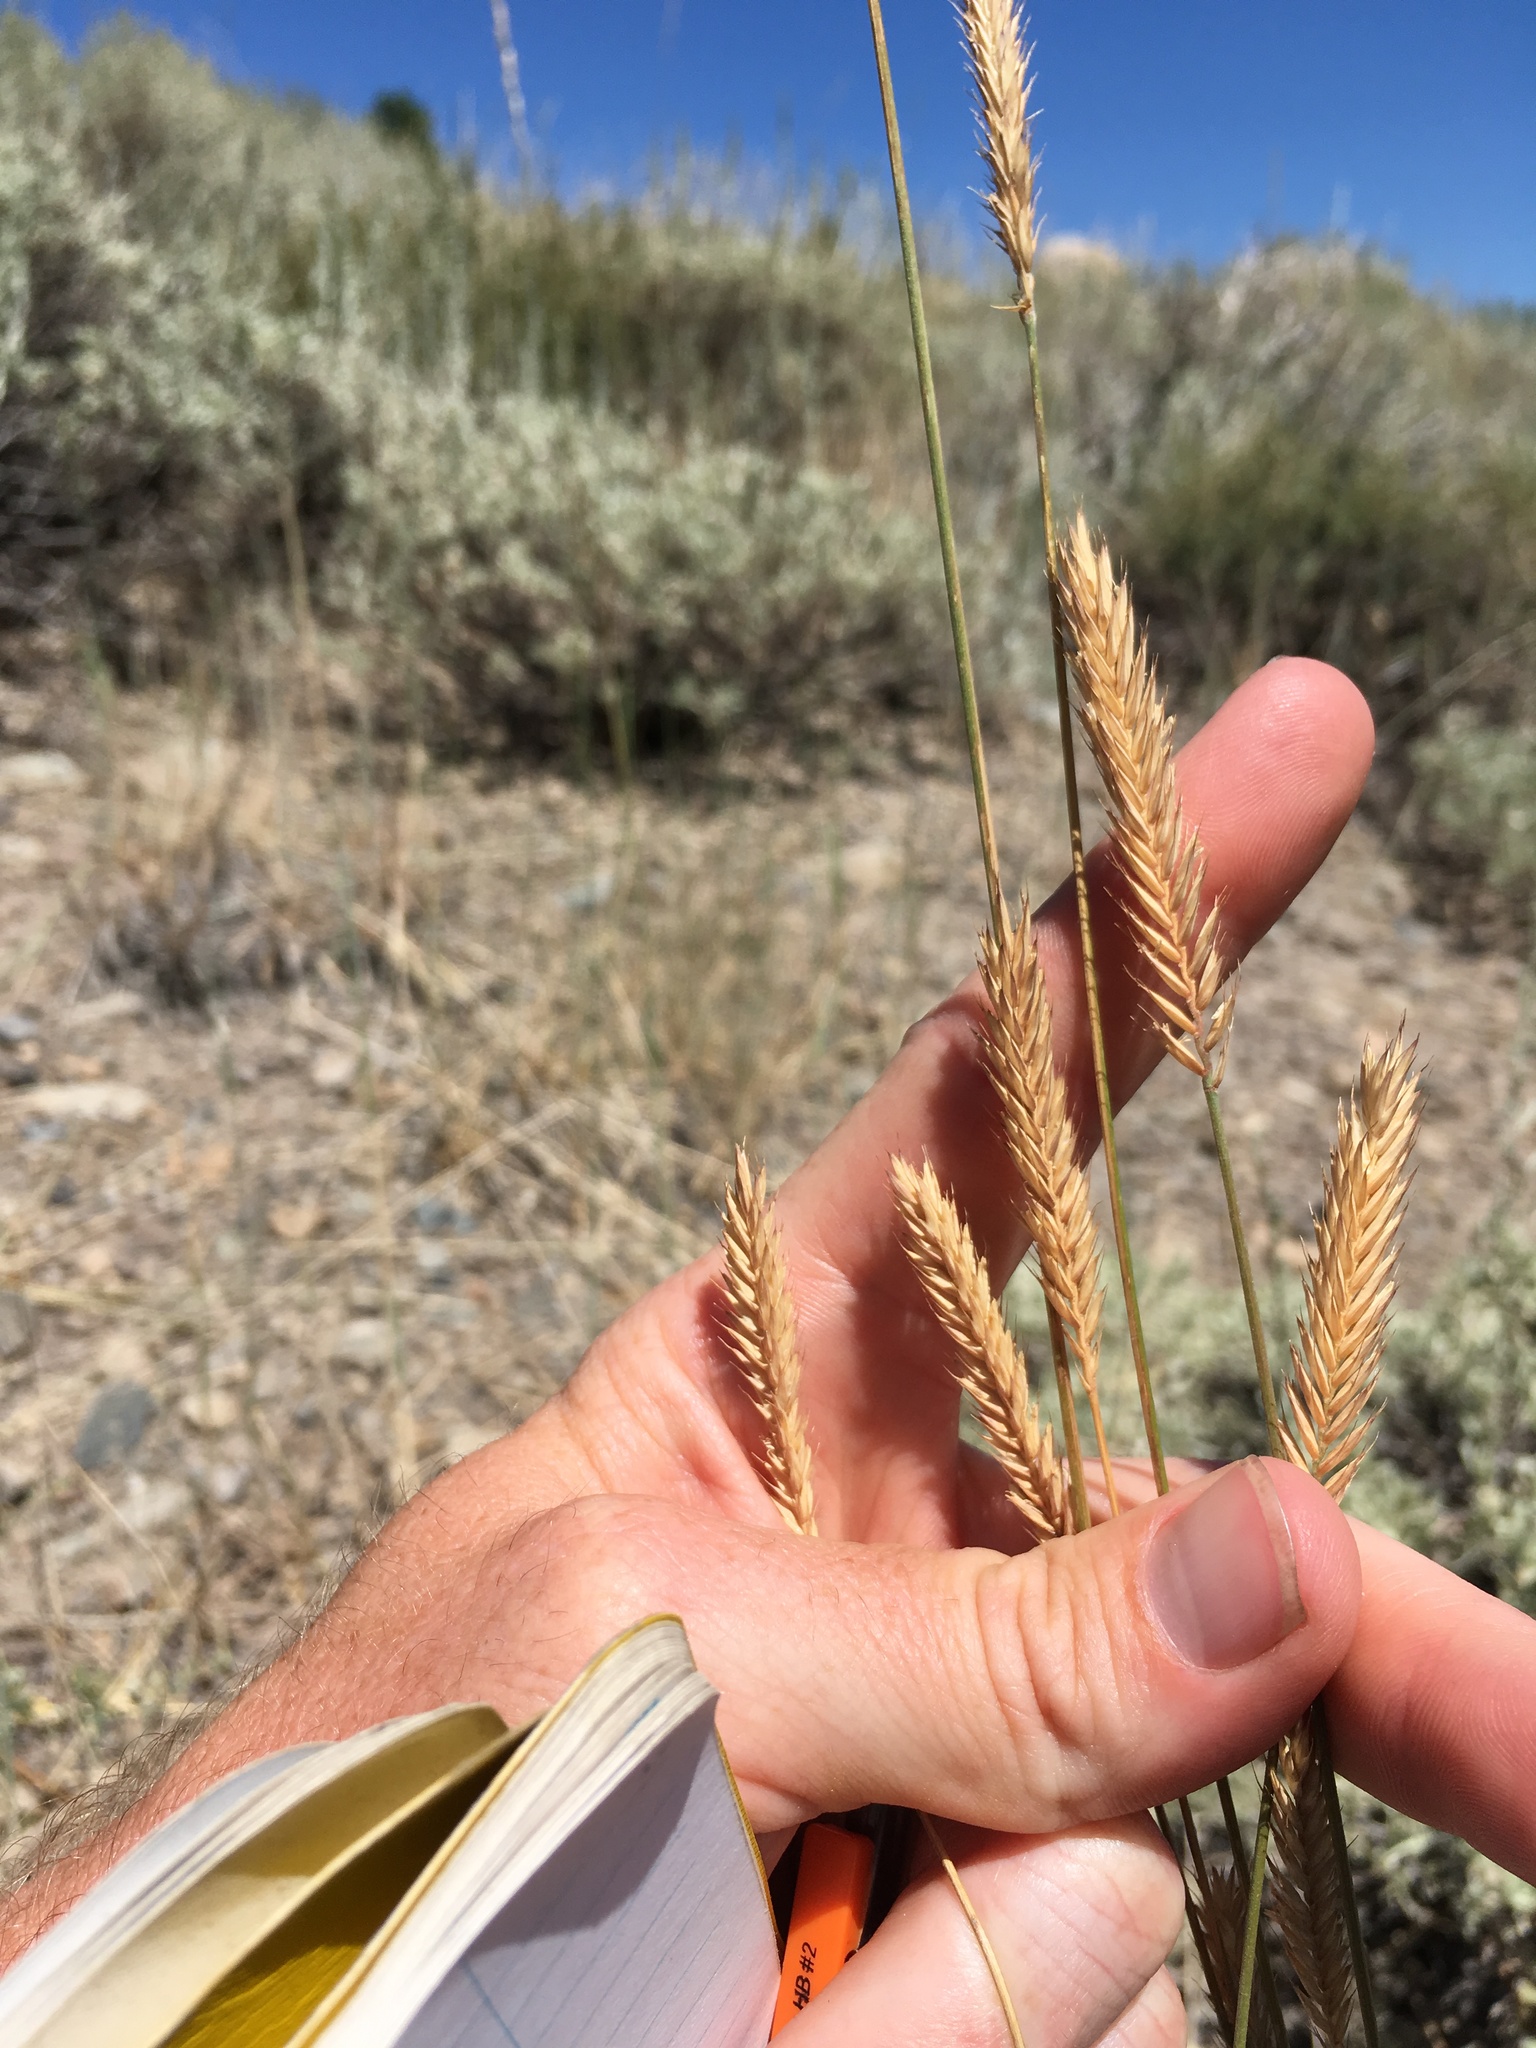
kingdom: Plantae
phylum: Tracheophyta
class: Liliopsida
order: Poales
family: Poaceae
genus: Agropyron
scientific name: Agropyron cristatum
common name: Crested wheatgrass
